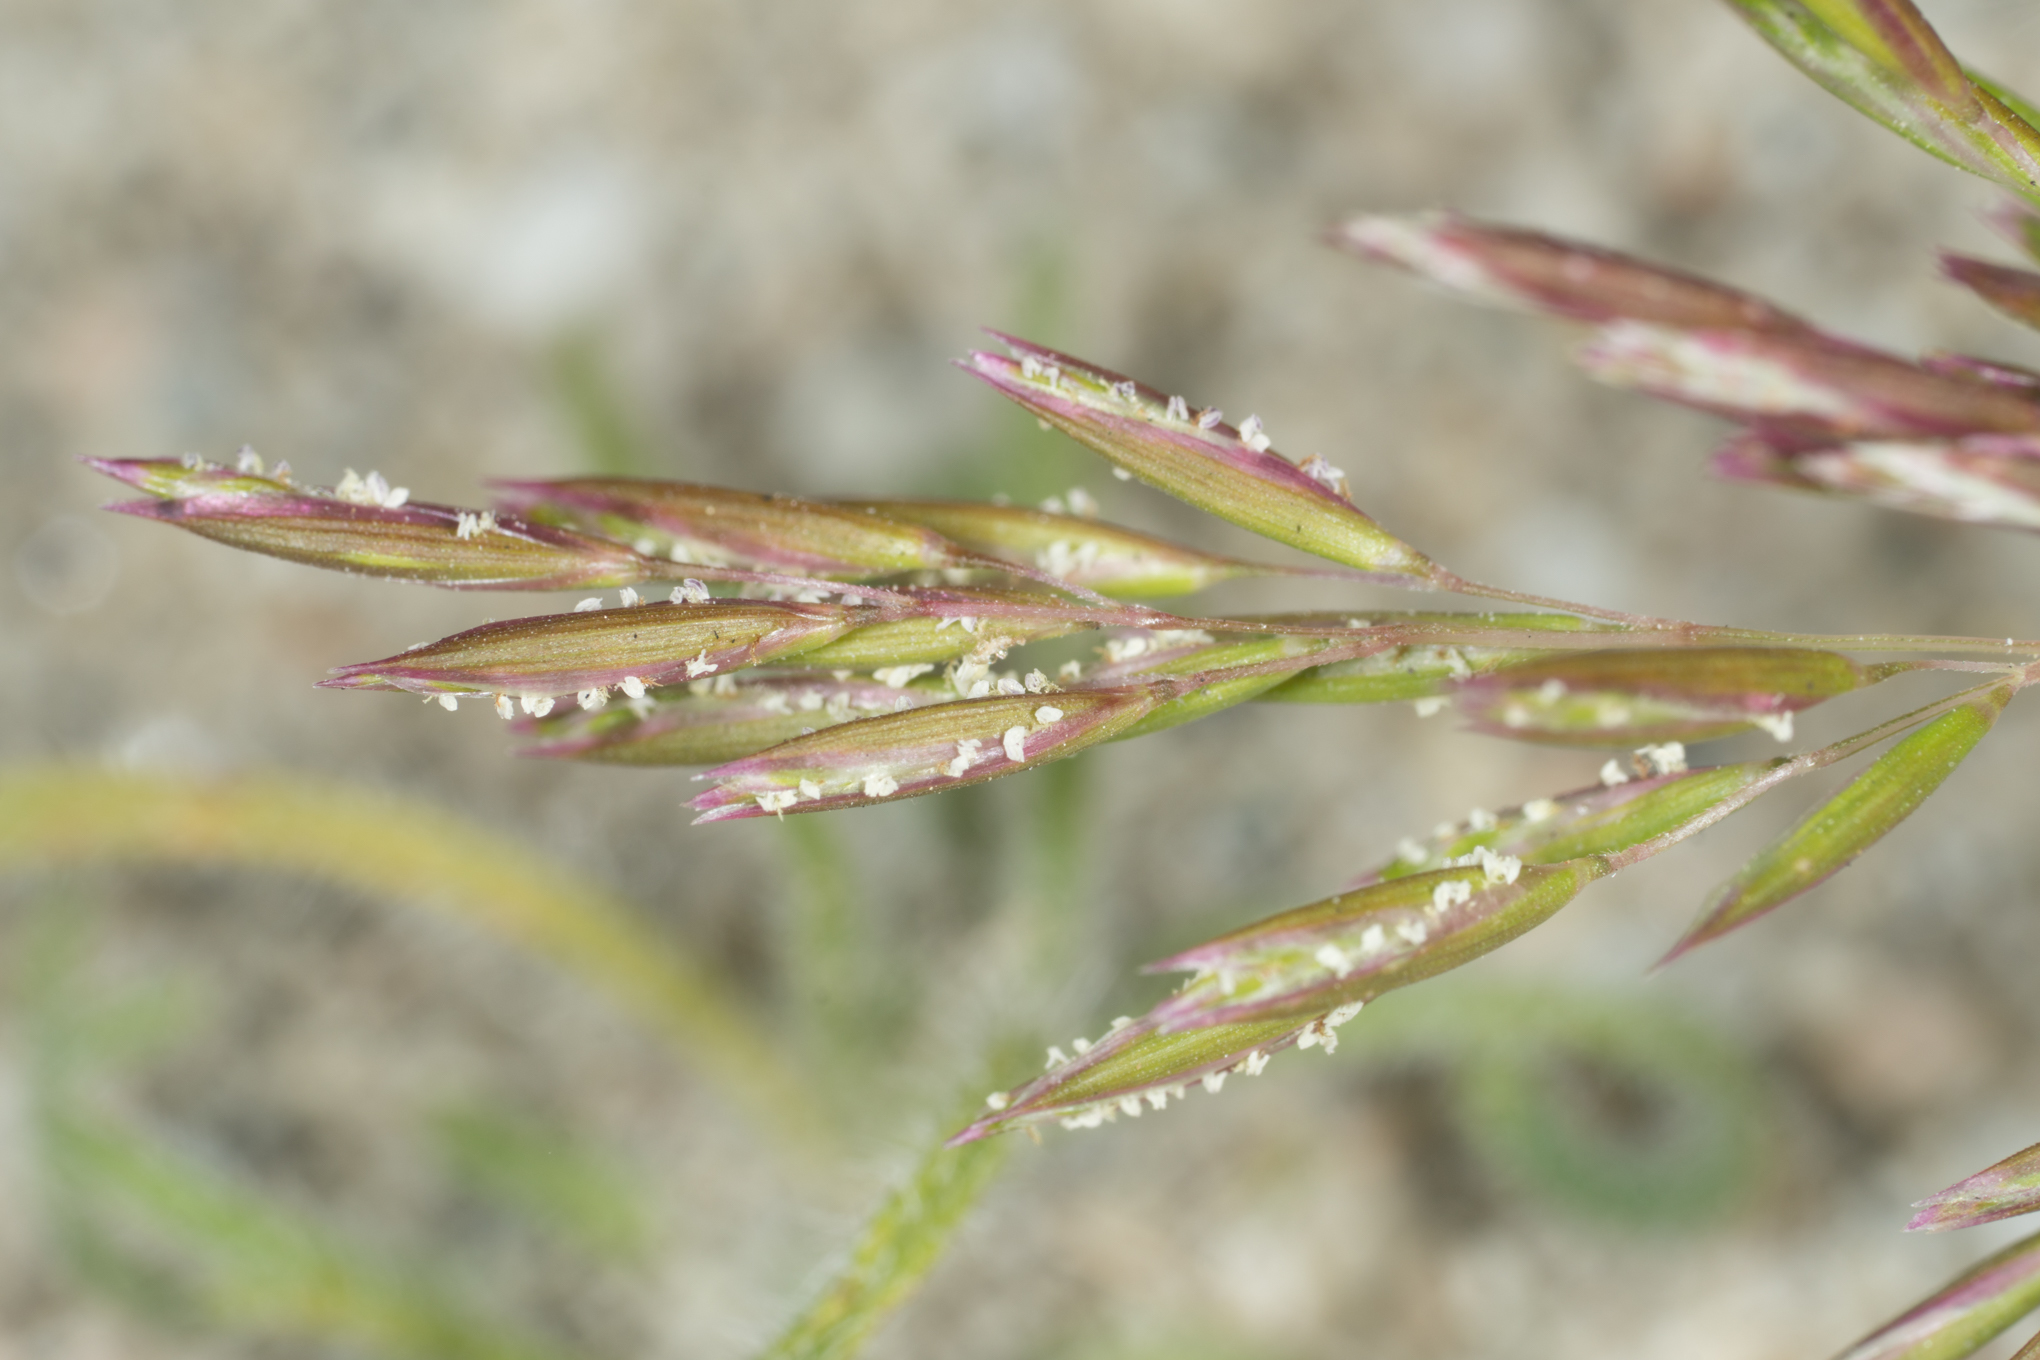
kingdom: Plantae
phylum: Tracheophyta
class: Liliopsida
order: Poales
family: Poaceae
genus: Schismus
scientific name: Schismus barbatus
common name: Kelch-grass
